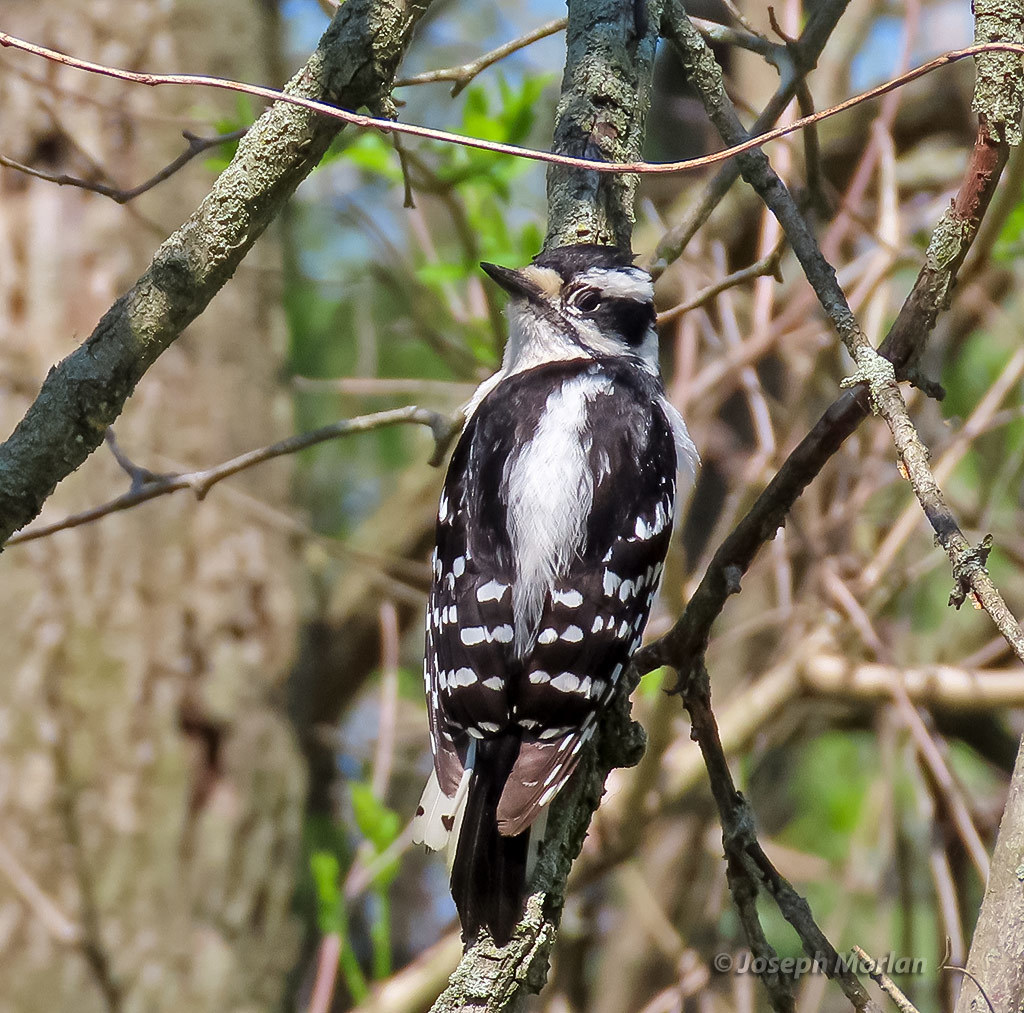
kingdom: Animalia
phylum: Chordata
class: Aves
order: Piciformes
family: Picidae
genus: Dryobates
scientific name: Dryobates pubescens
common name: Downy woodpecker
